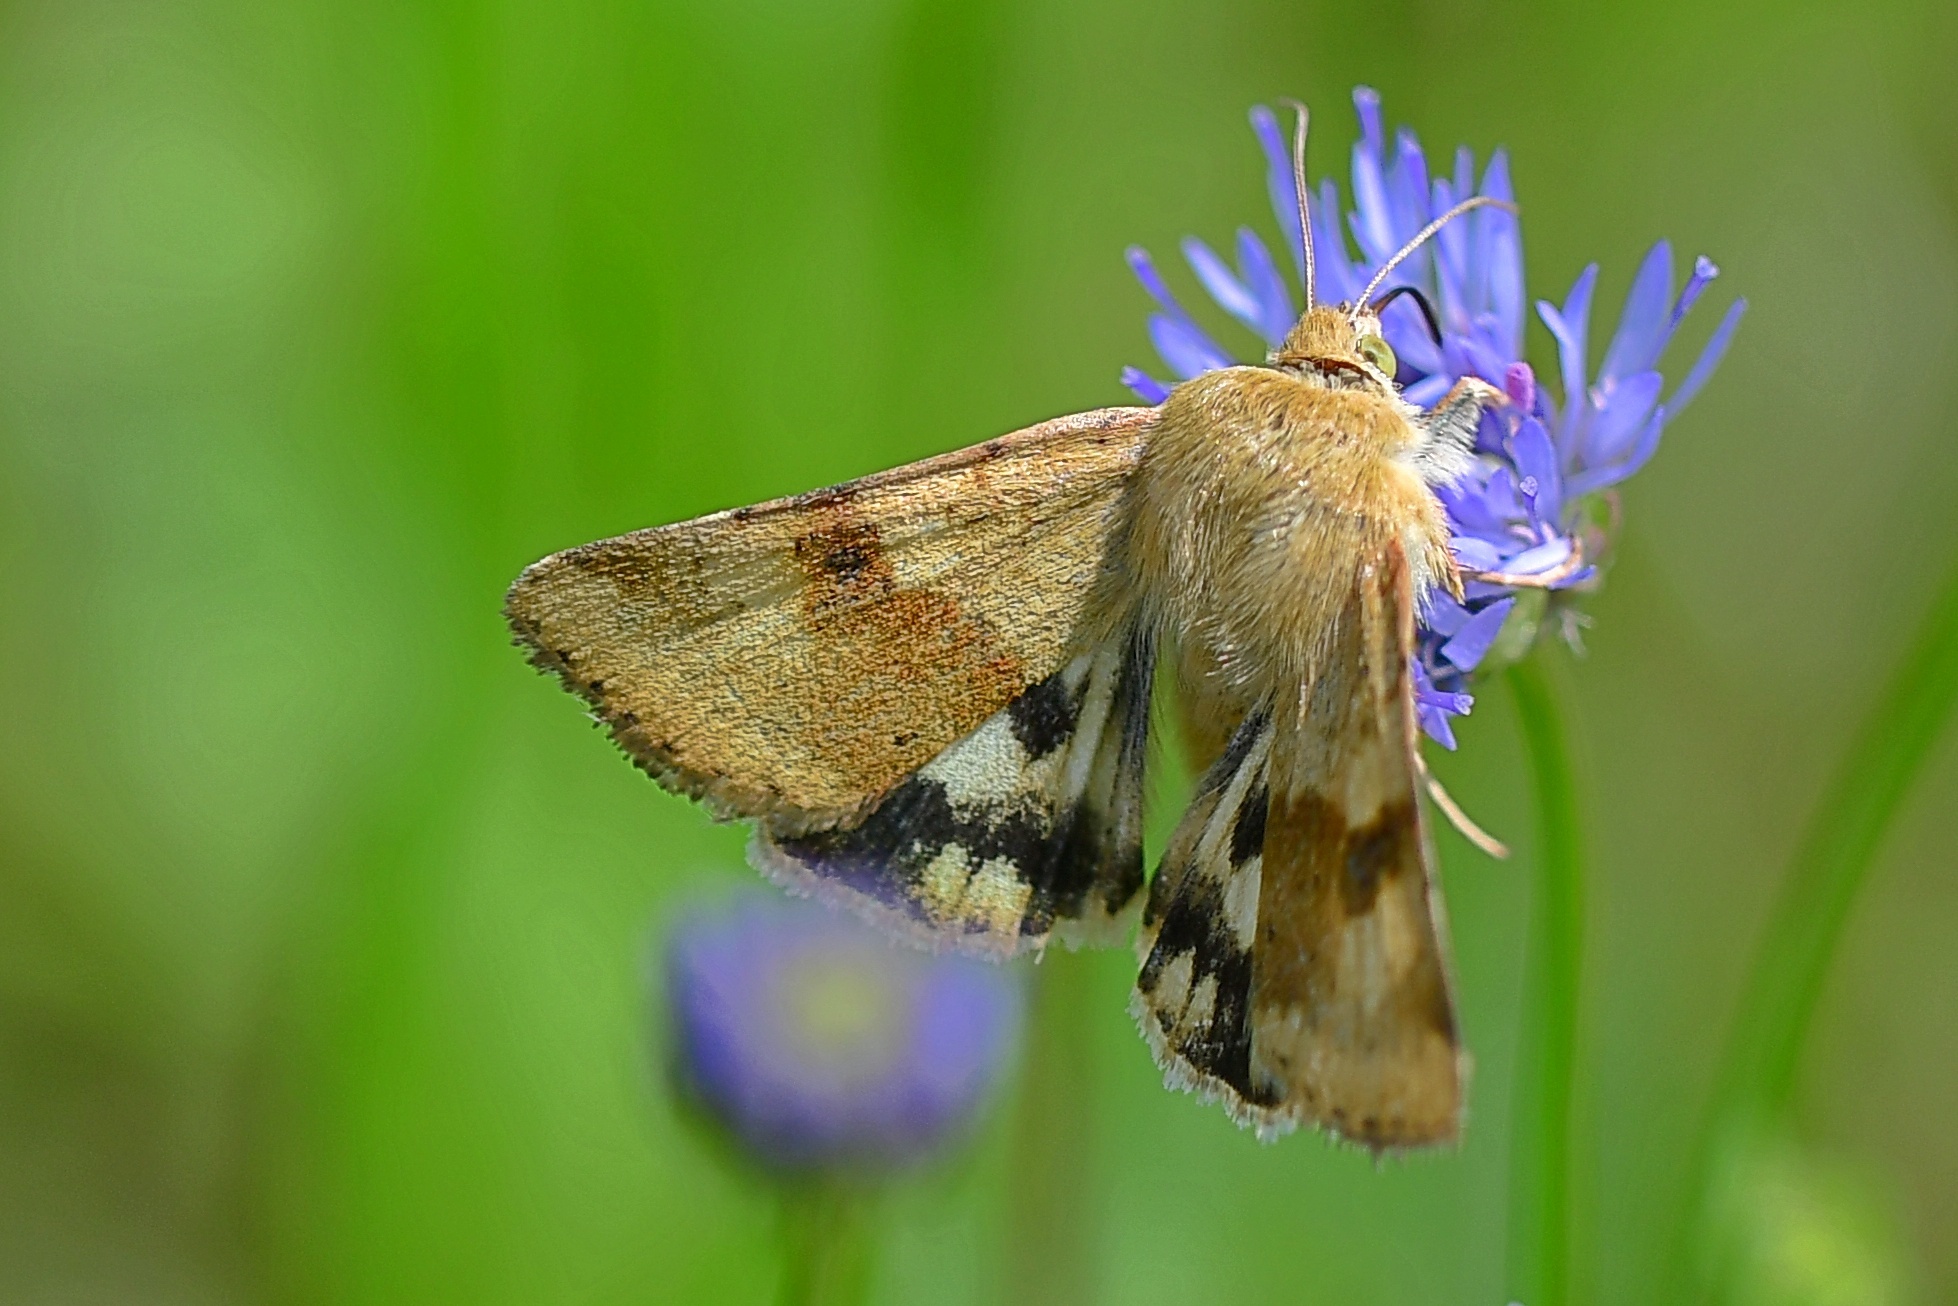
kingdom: Animalia
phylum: Arthropoda
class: Insecta
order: Lepidoptera
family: Noctuidae
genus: Heliothis
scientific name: Heliothis viriplaca
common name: Marbled clover
